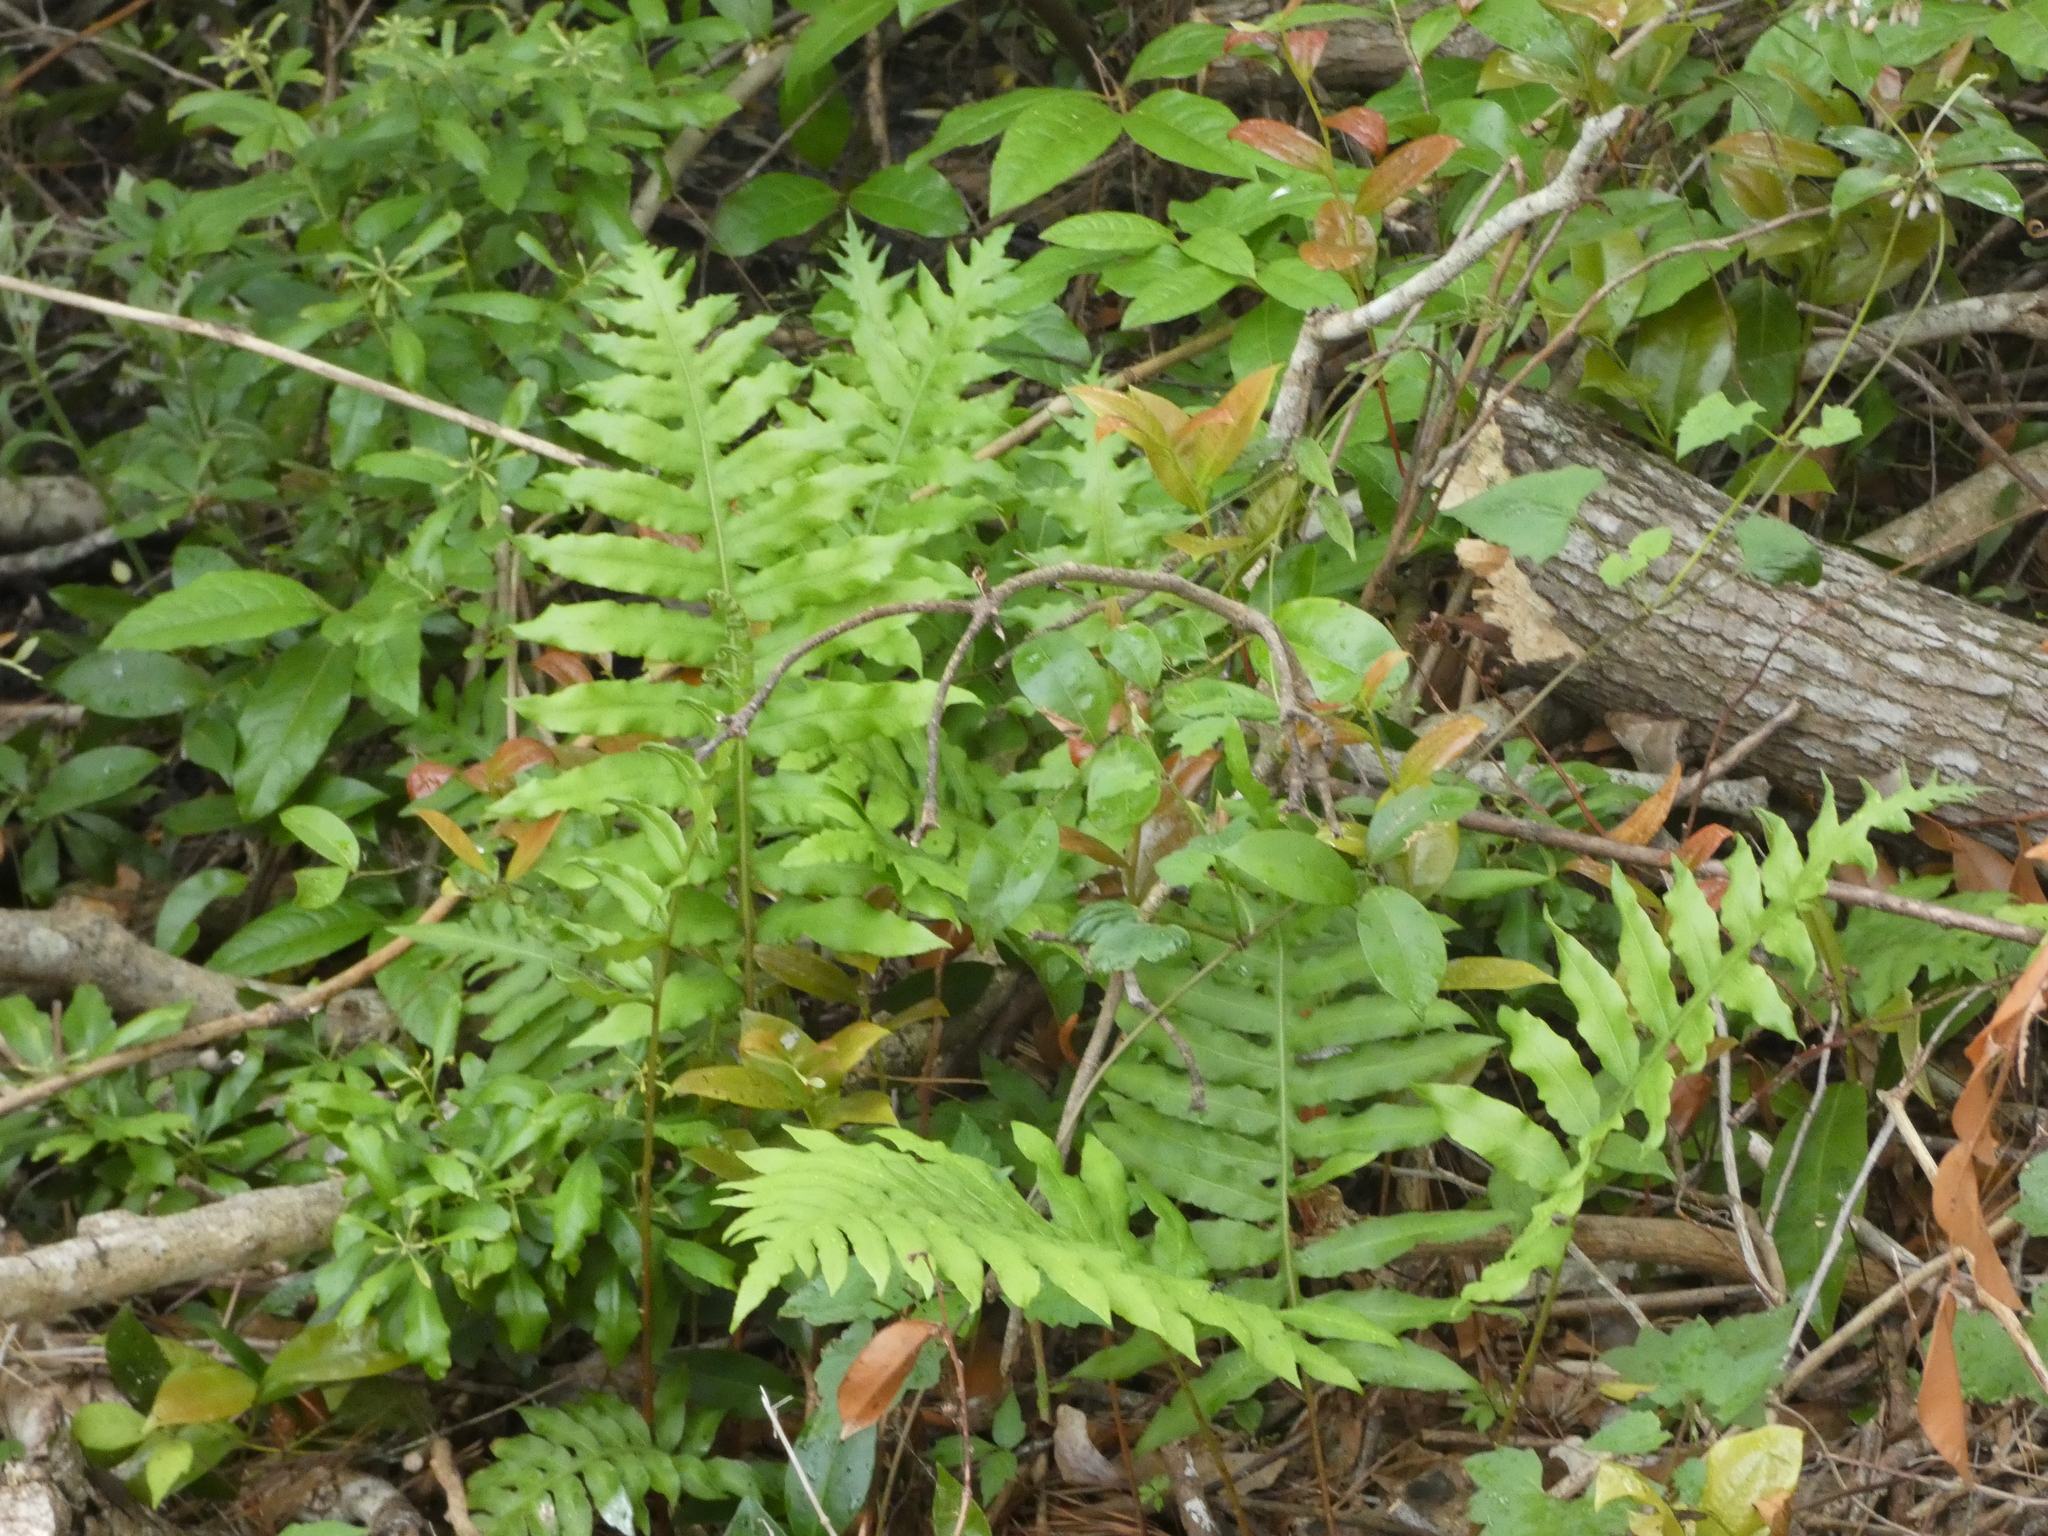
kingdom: Plantae
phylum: Tracheophyta
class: Polypodiopsida
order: Polypodiales
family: Blechnaceae
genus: Lorinseria
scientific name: Lorinseria areolata
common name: Dwarf chain fern
